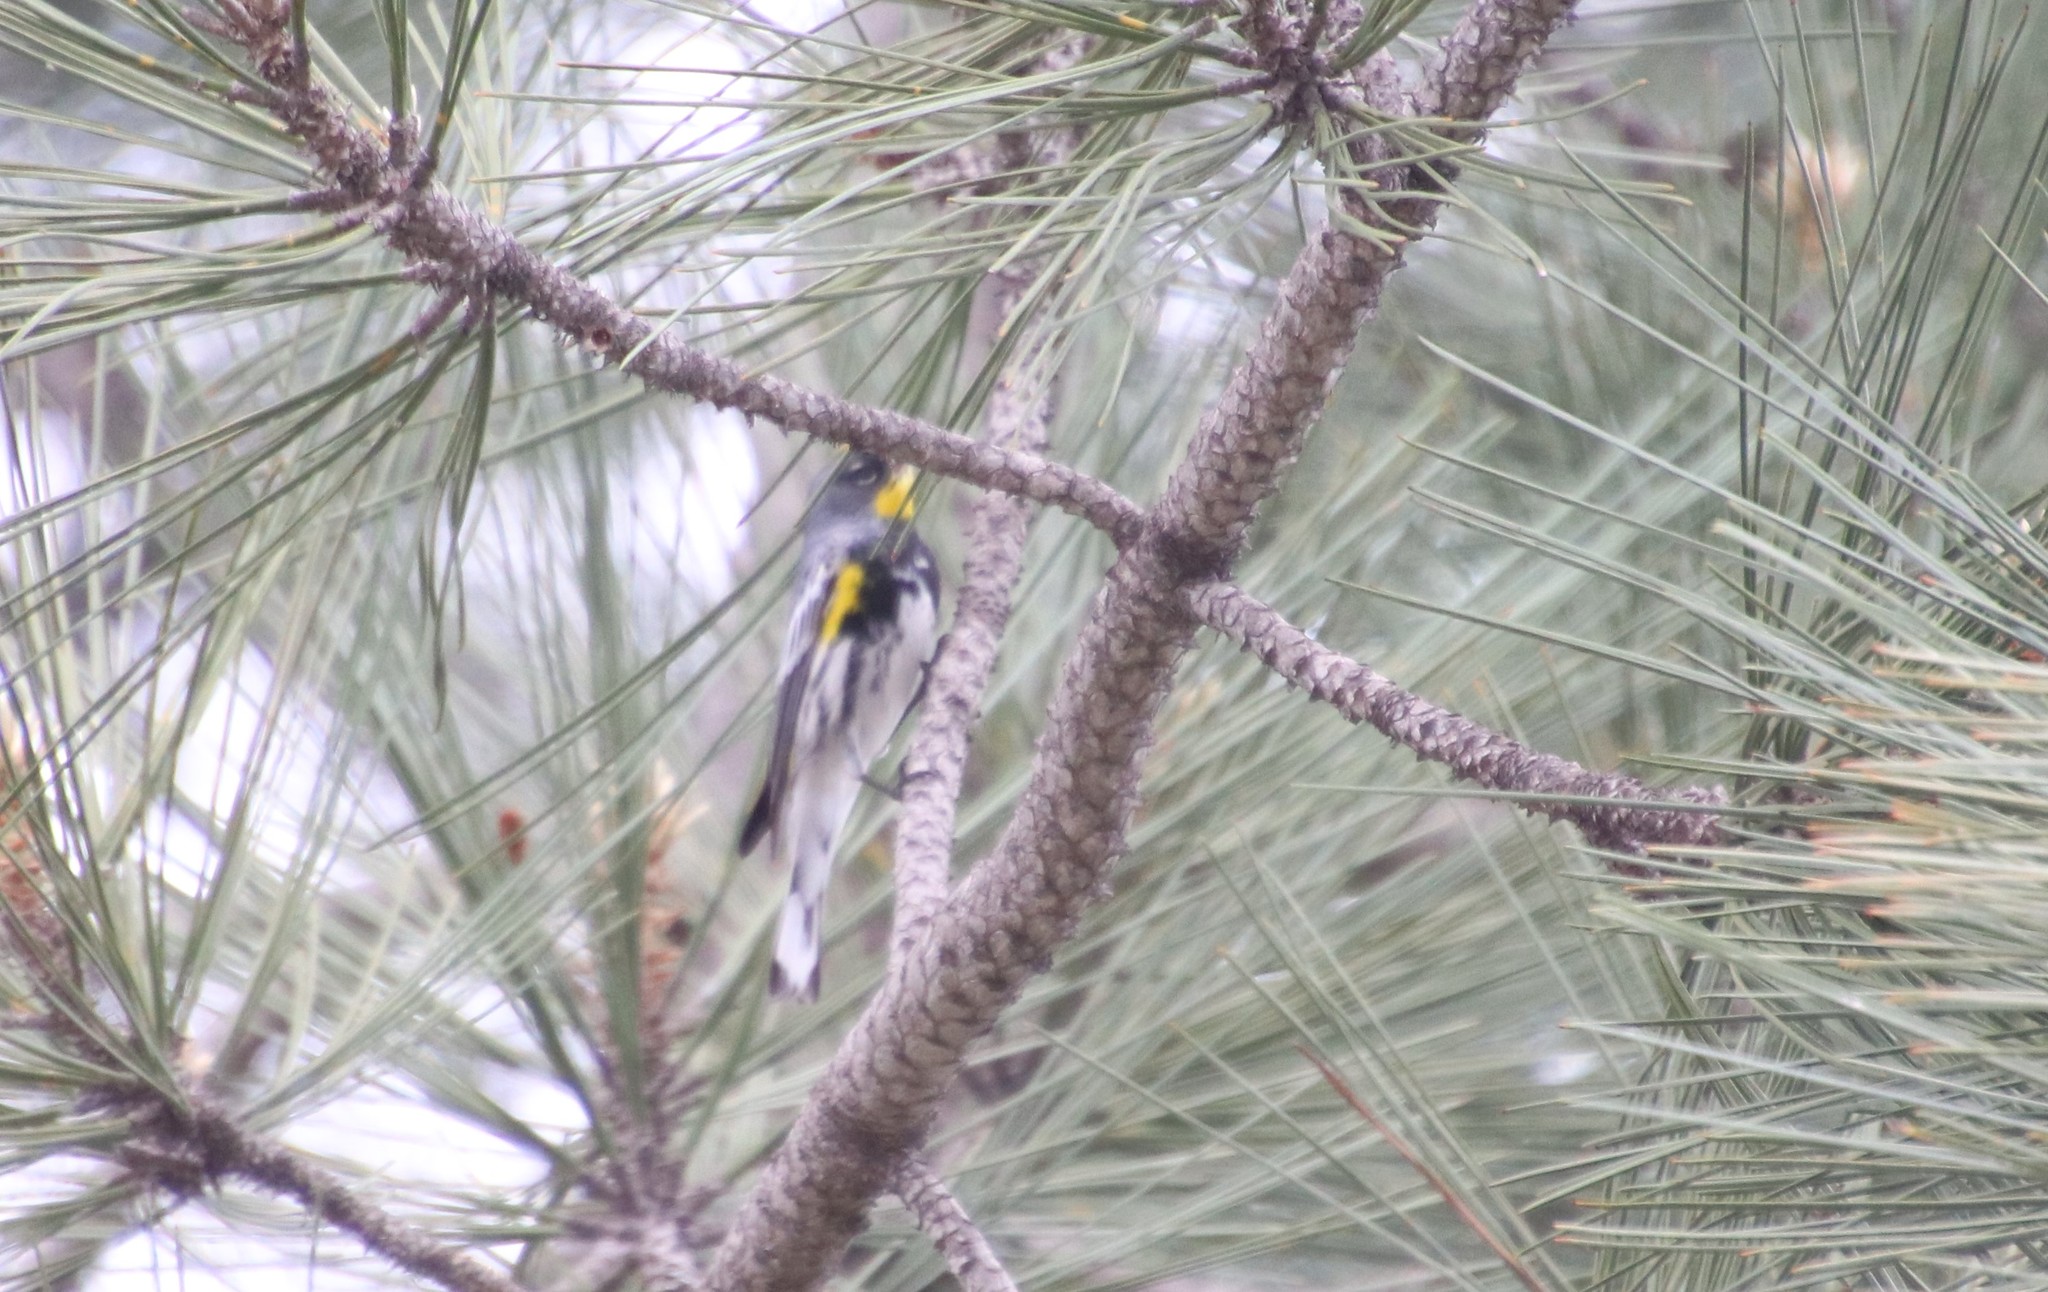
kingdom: Animalia
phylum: Chordata
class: Aves
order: Passeriformes
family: Parulidae
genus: Setophaga
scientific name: Setophaga auduboni
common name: Audubon's warbler
